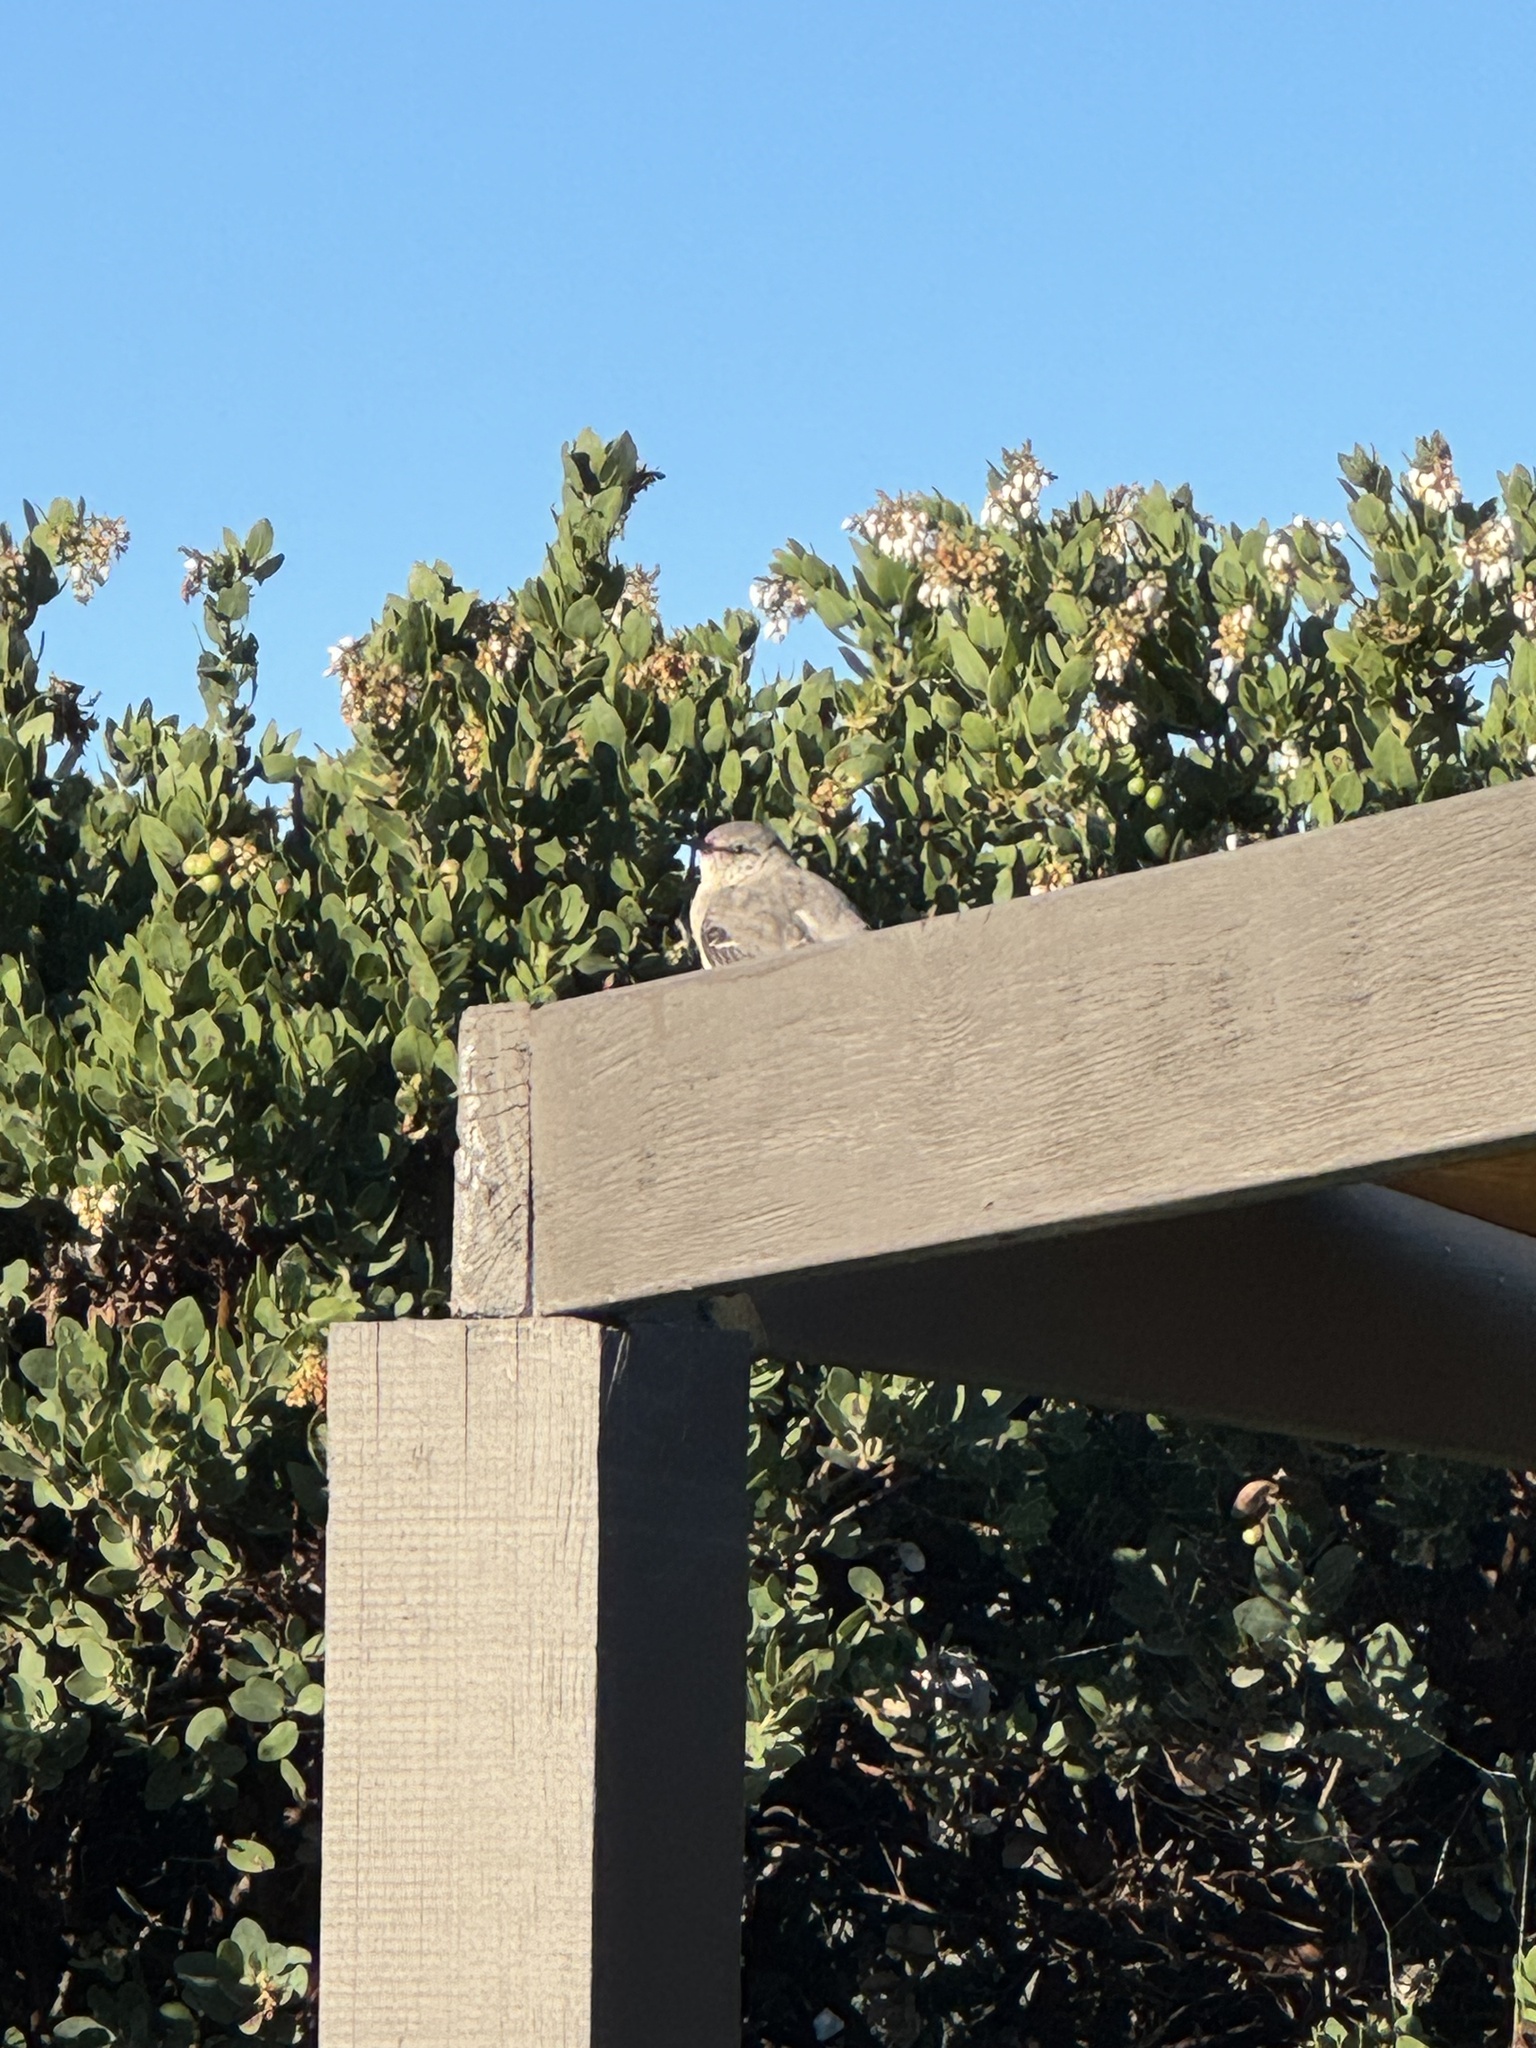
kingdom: Animalia
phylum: Chordata
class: Aves
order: Passeriformes
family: Mimidae
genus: Mimus
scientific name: Mimus polyglottos
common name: Northern mockingbird
